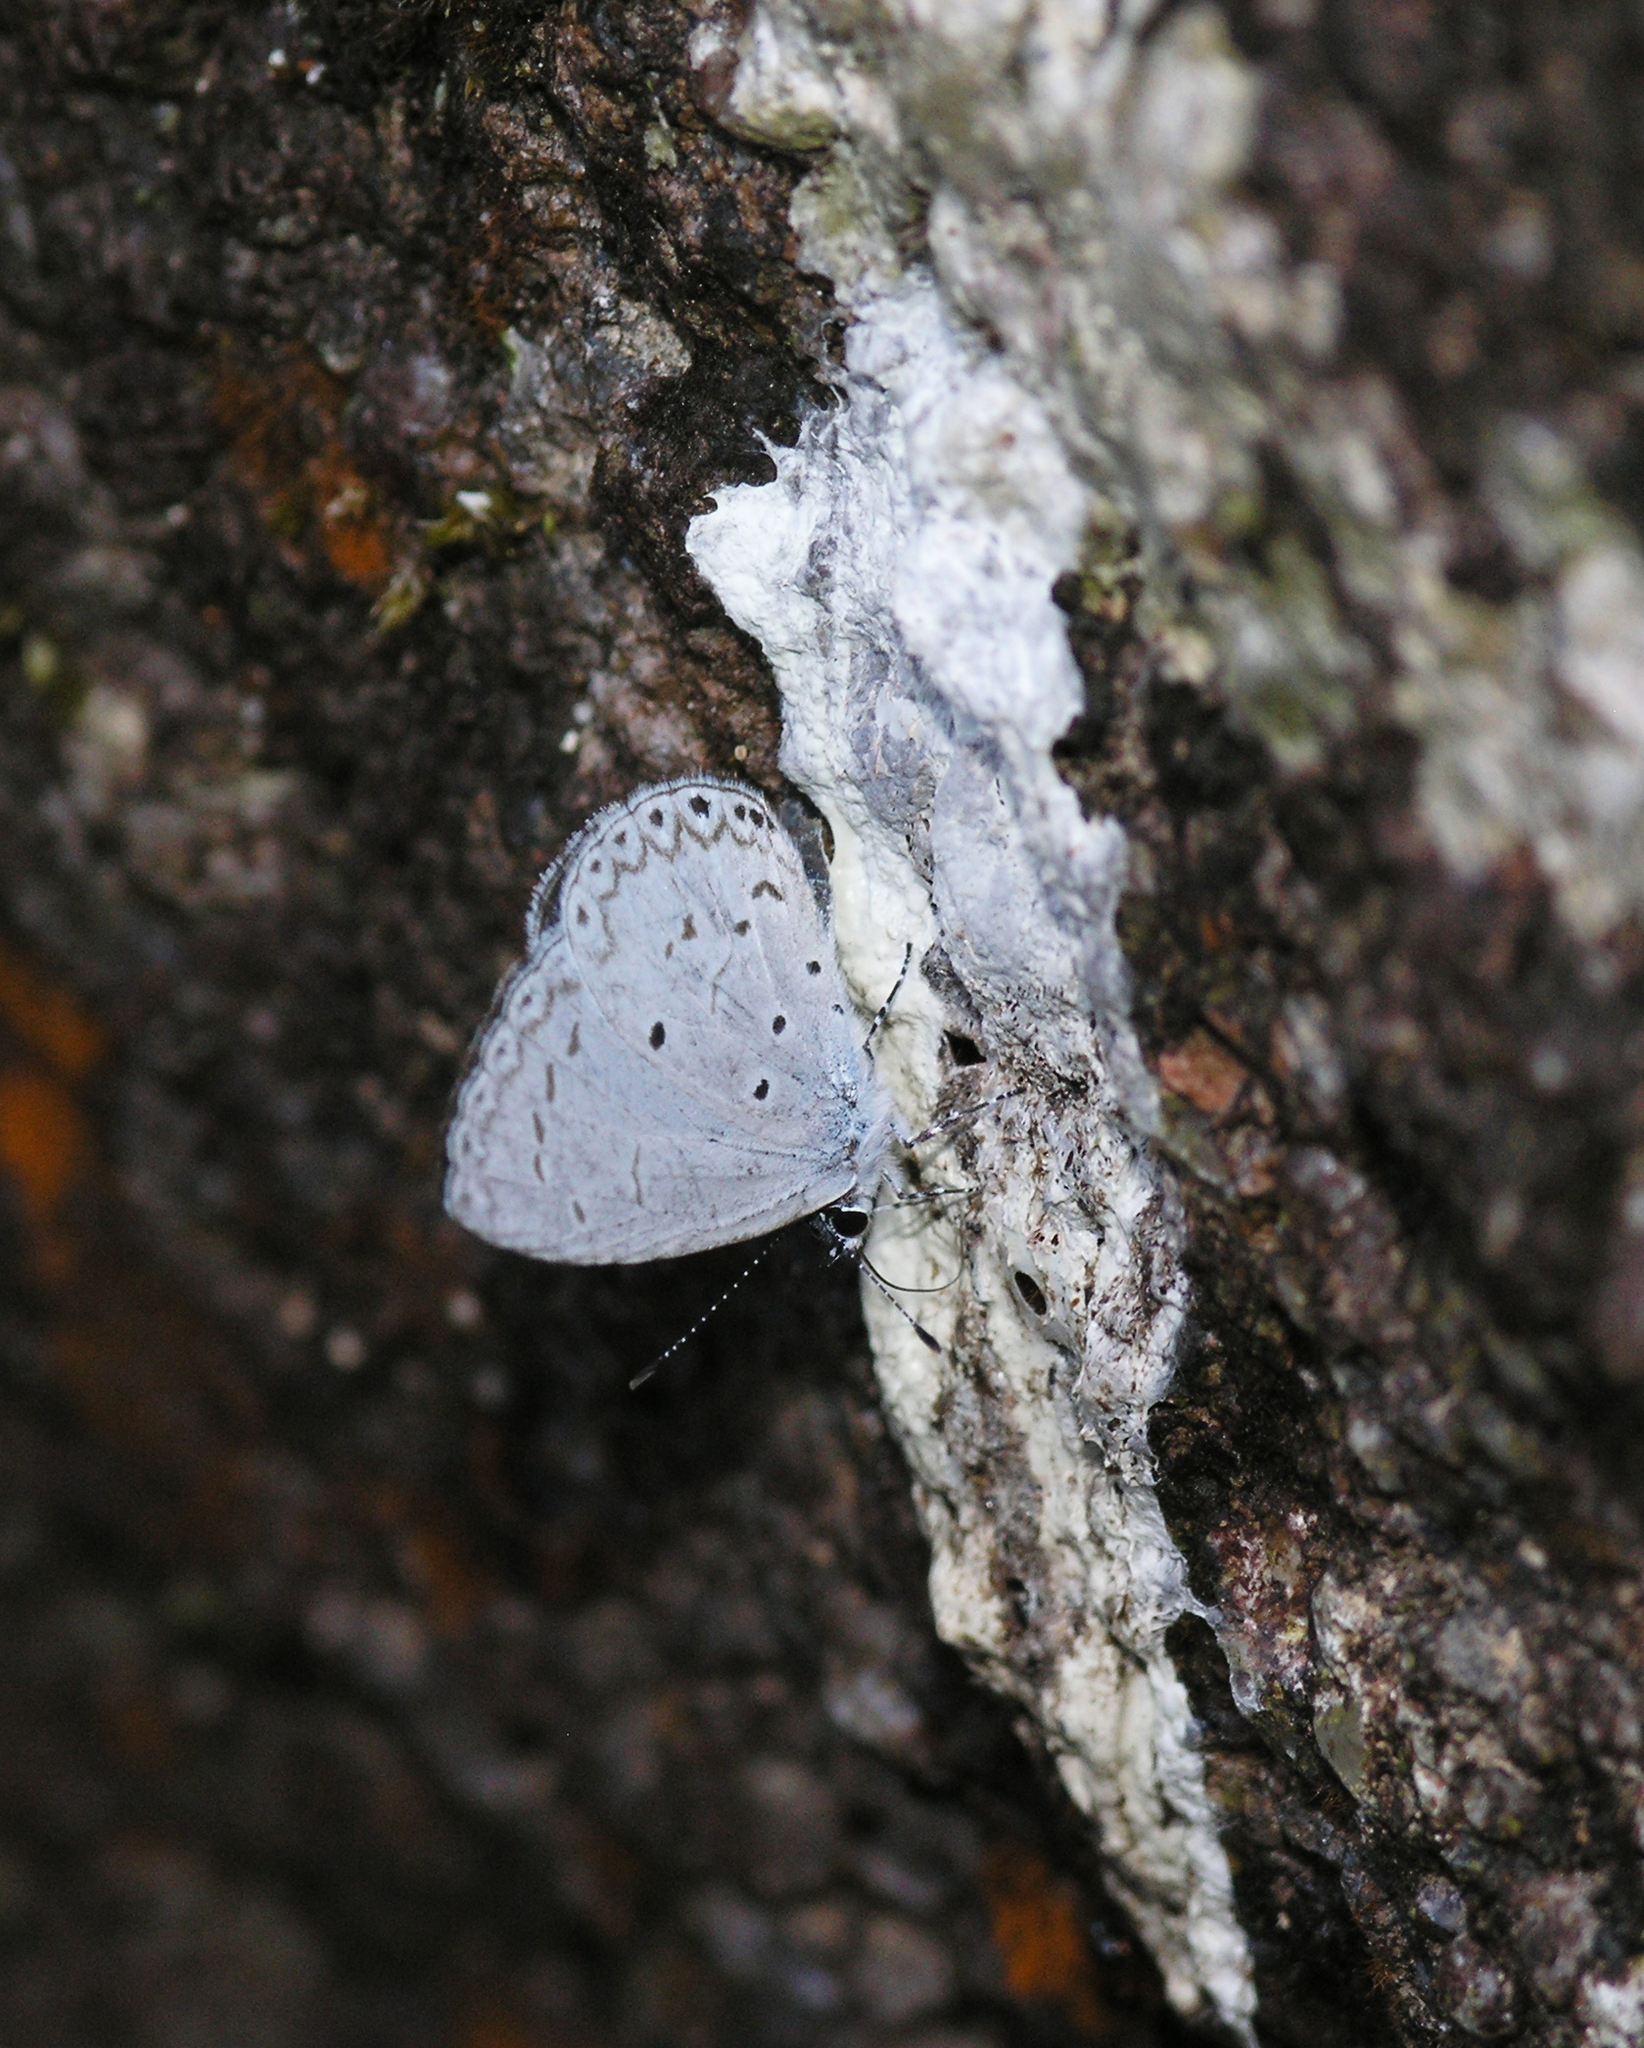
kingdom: Animalia
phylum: Arthropoda
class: Insecta
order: Lepidoptera
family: Lycaenidae
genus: Udara
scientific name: Udara
